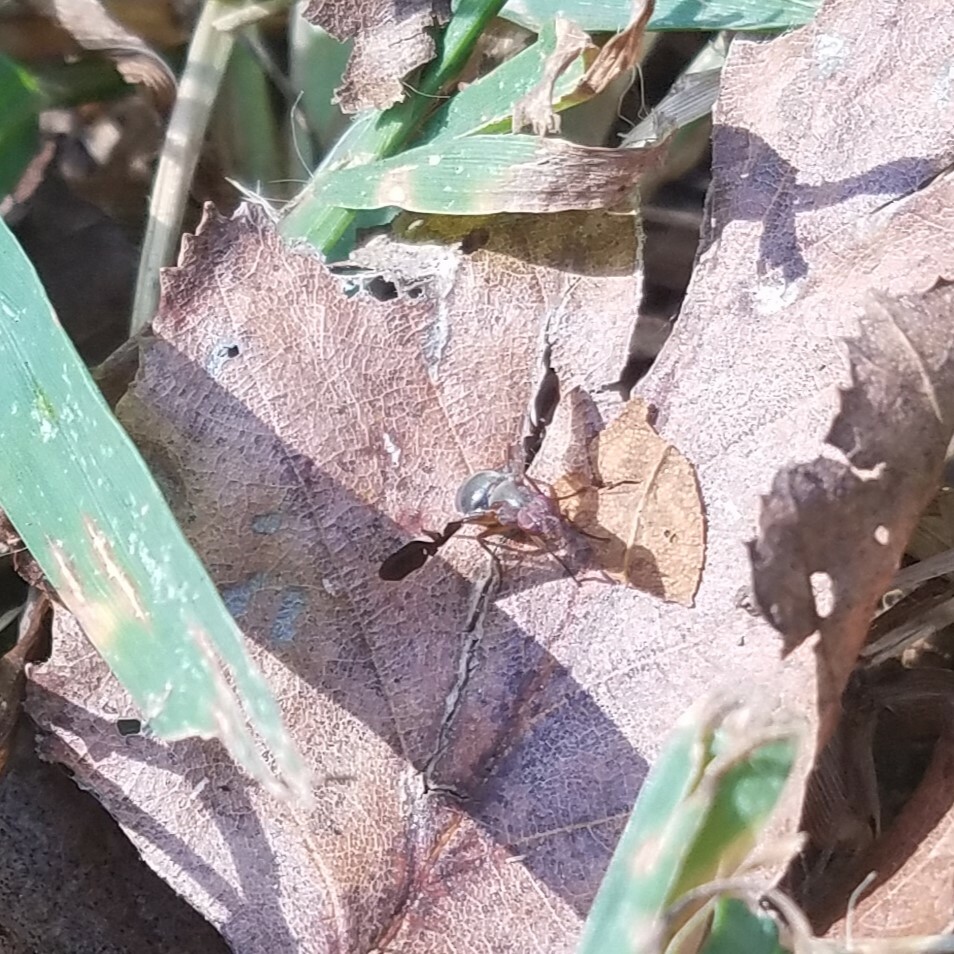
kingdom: Animalia
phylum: Arthropoda
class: Insecta
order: Diptera
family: Ulidiidae
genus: Delphinia
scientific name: Delphinia picta
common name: Common picture-winged fly
